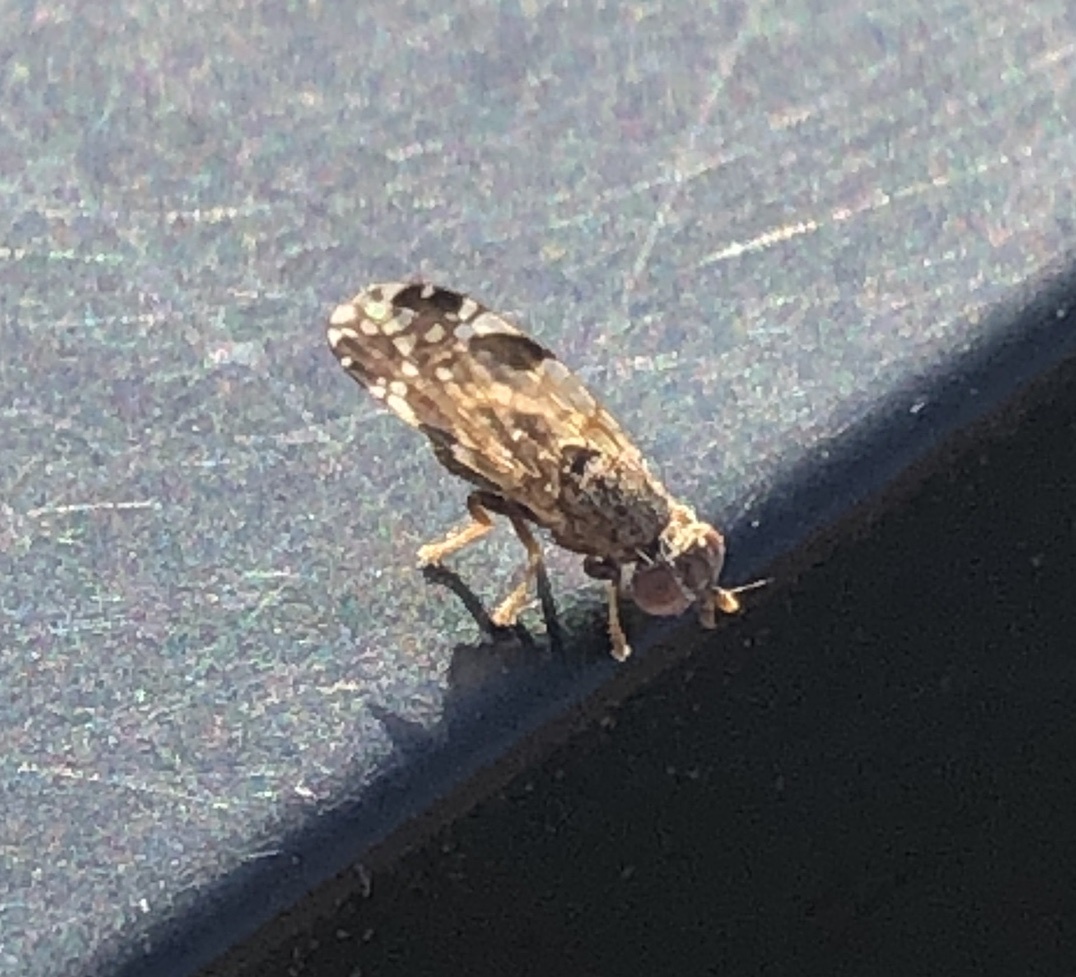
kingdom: Animalia
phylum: Arthropoda
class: Insecta
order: Diptera
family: Tephritidae
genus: Neotephritis
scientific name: Neotephritis finalis
